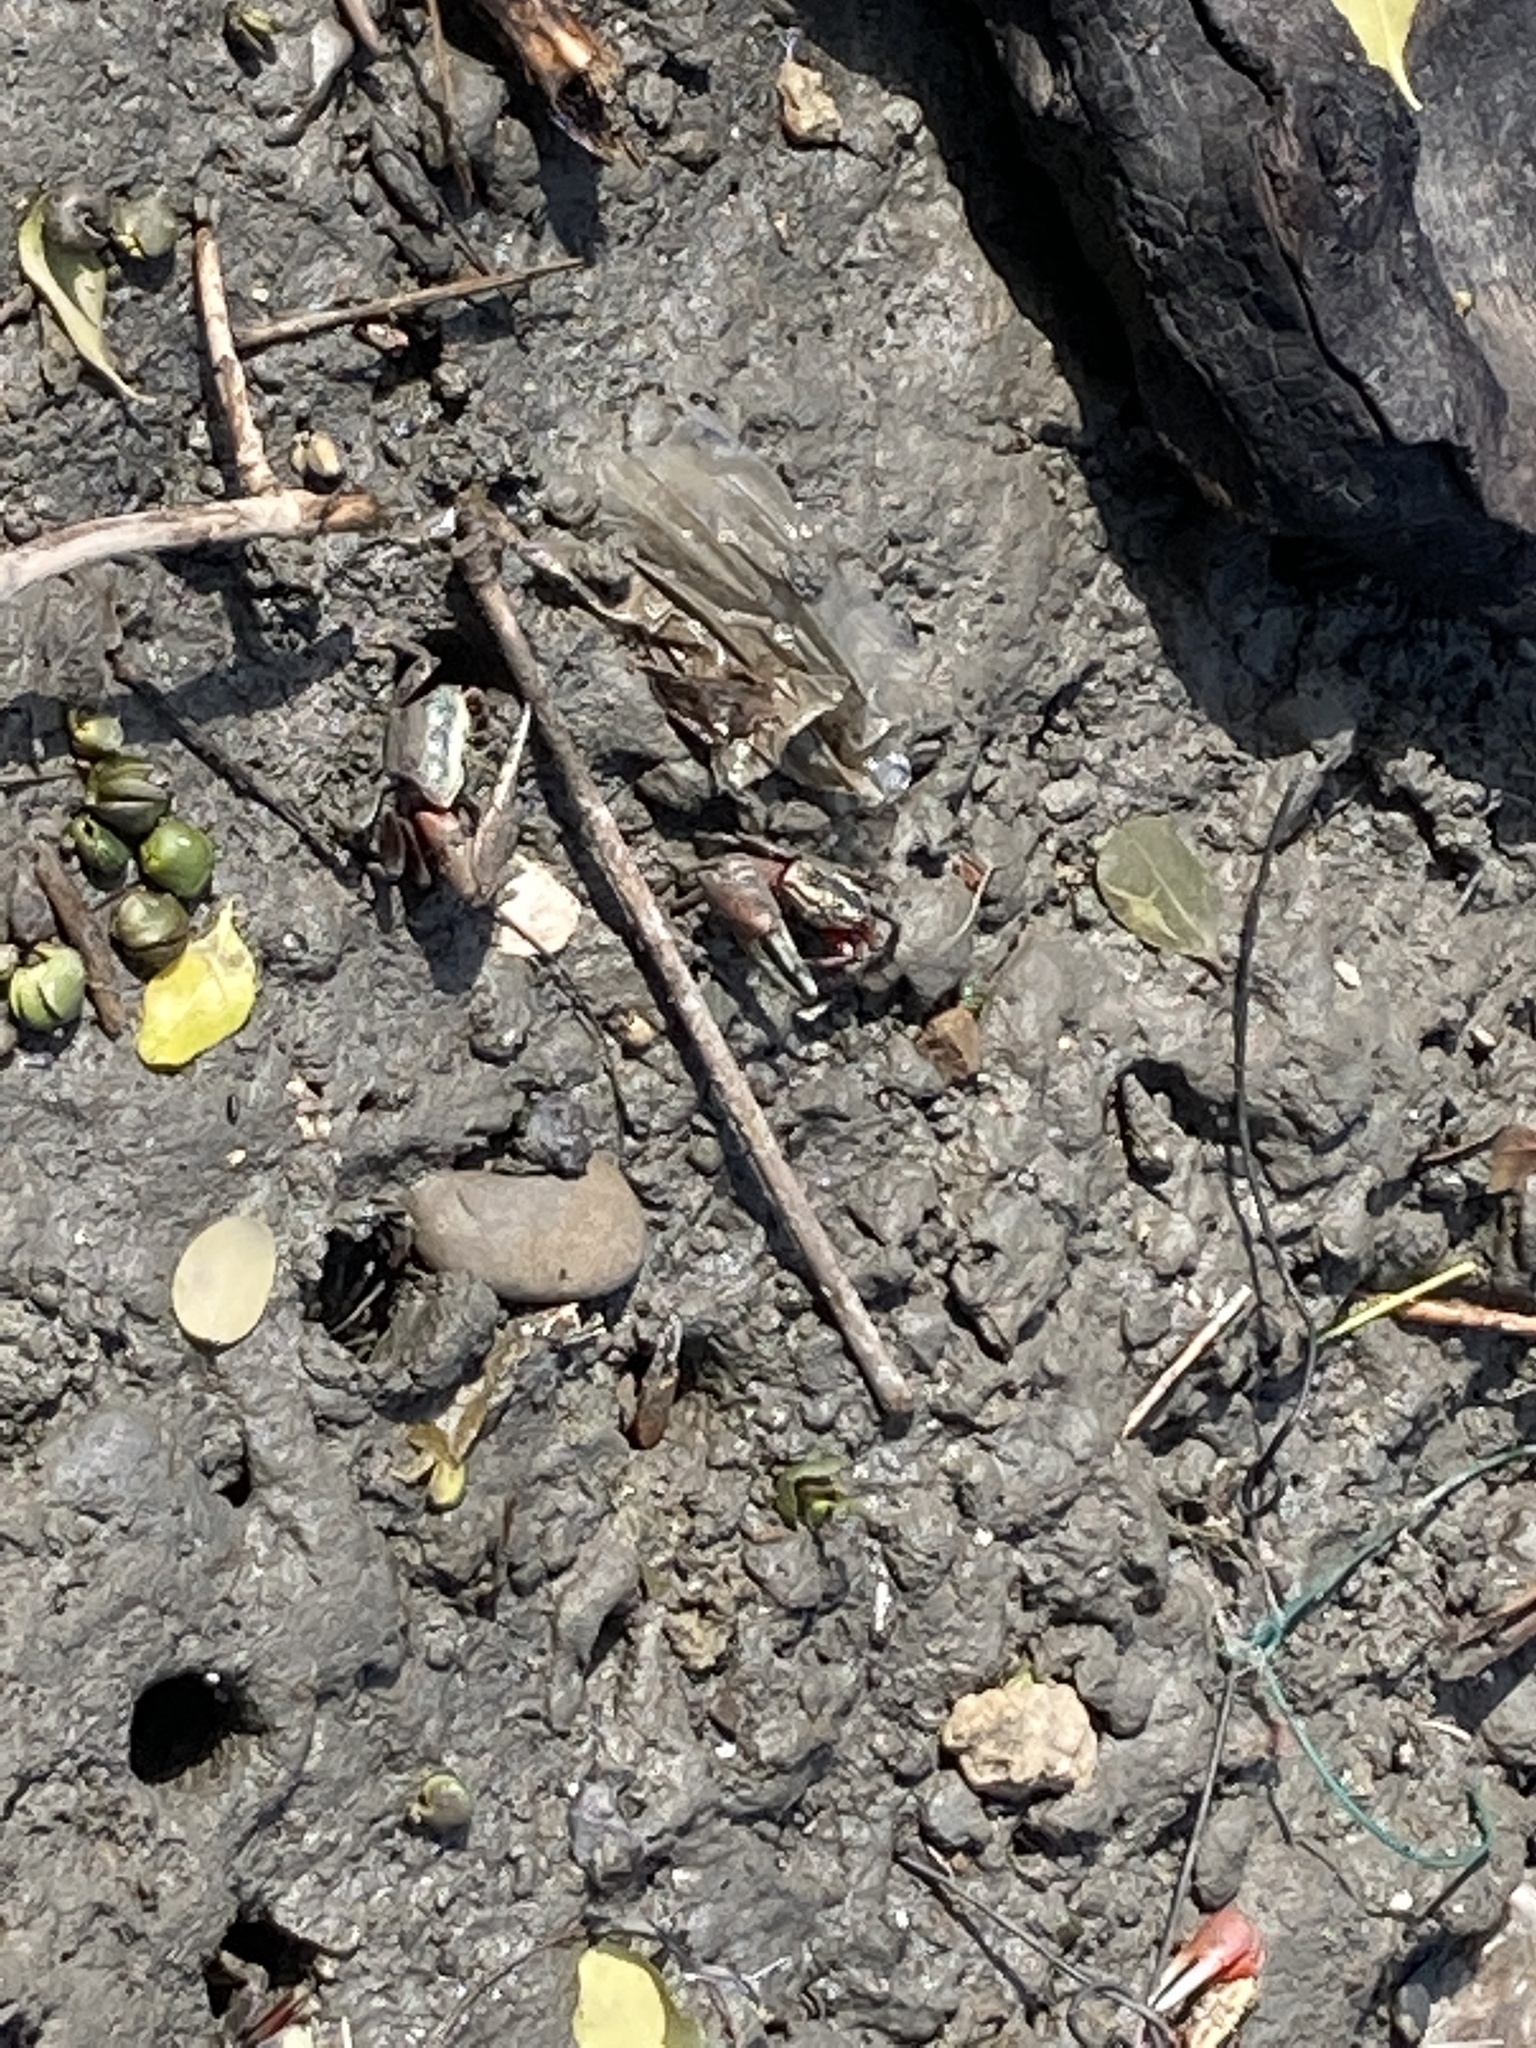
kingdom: Animalia
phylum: Arthropoda
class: Malacostraca
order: Decapoda
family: Ocypodidae
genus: Tubuca
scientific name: Tubuca arcuata
